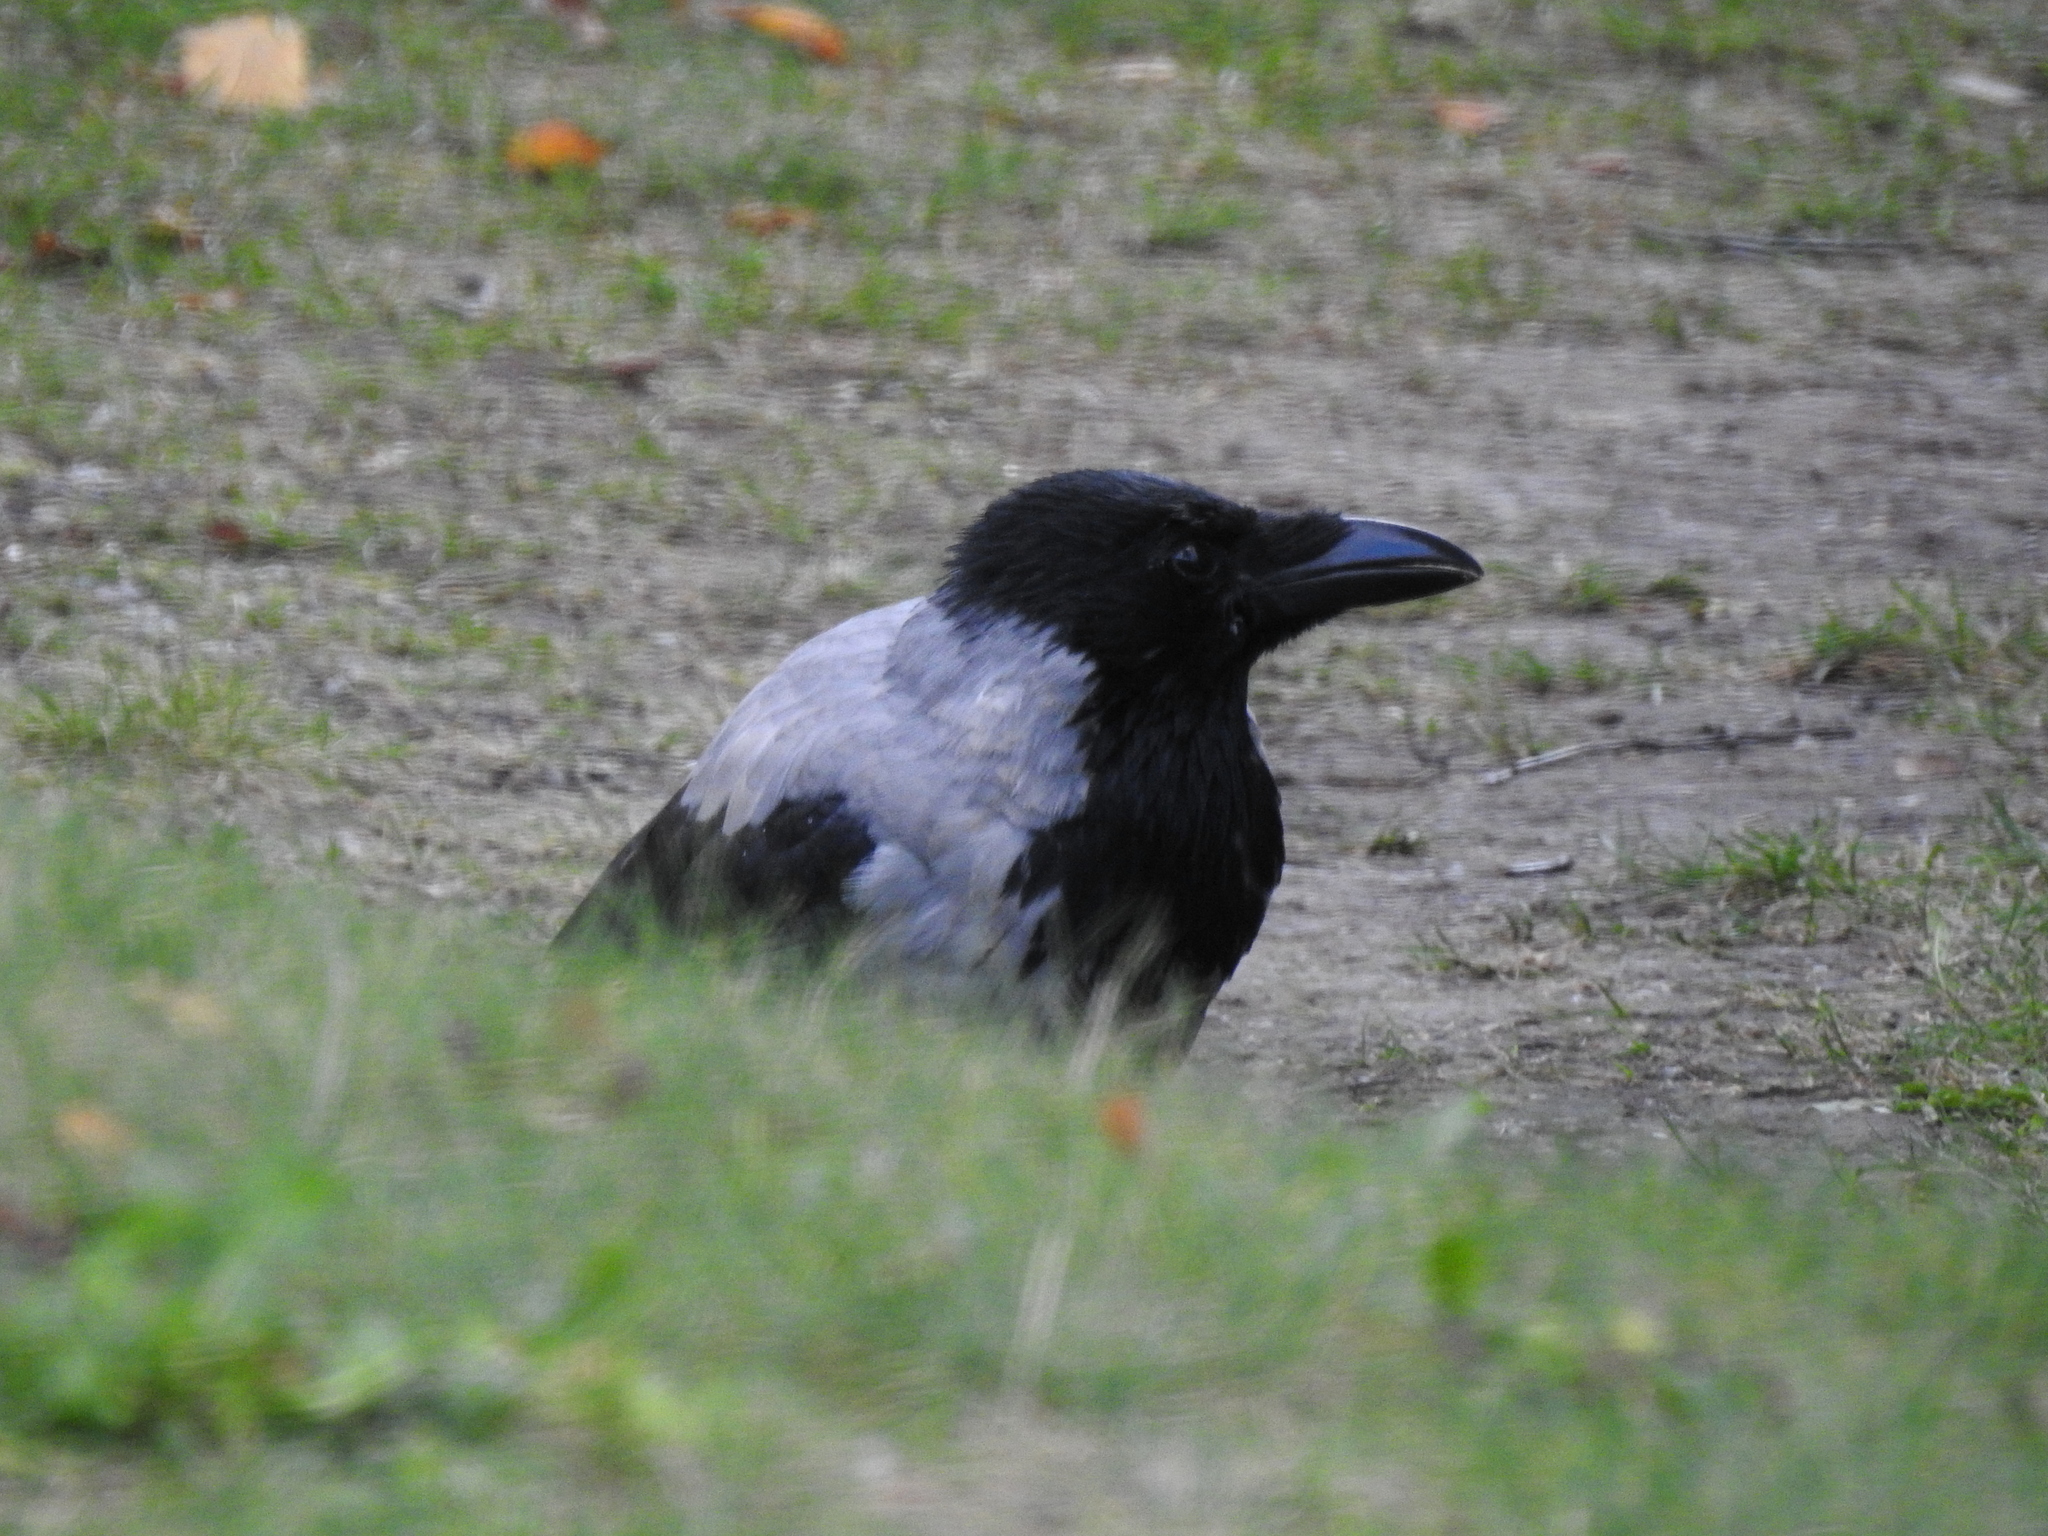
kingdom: Animalia
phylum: Chordata
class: Aves
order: Passeriformes
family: Corvidae
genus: Corvus
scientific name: Corvus cornix
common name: Hooded crow
